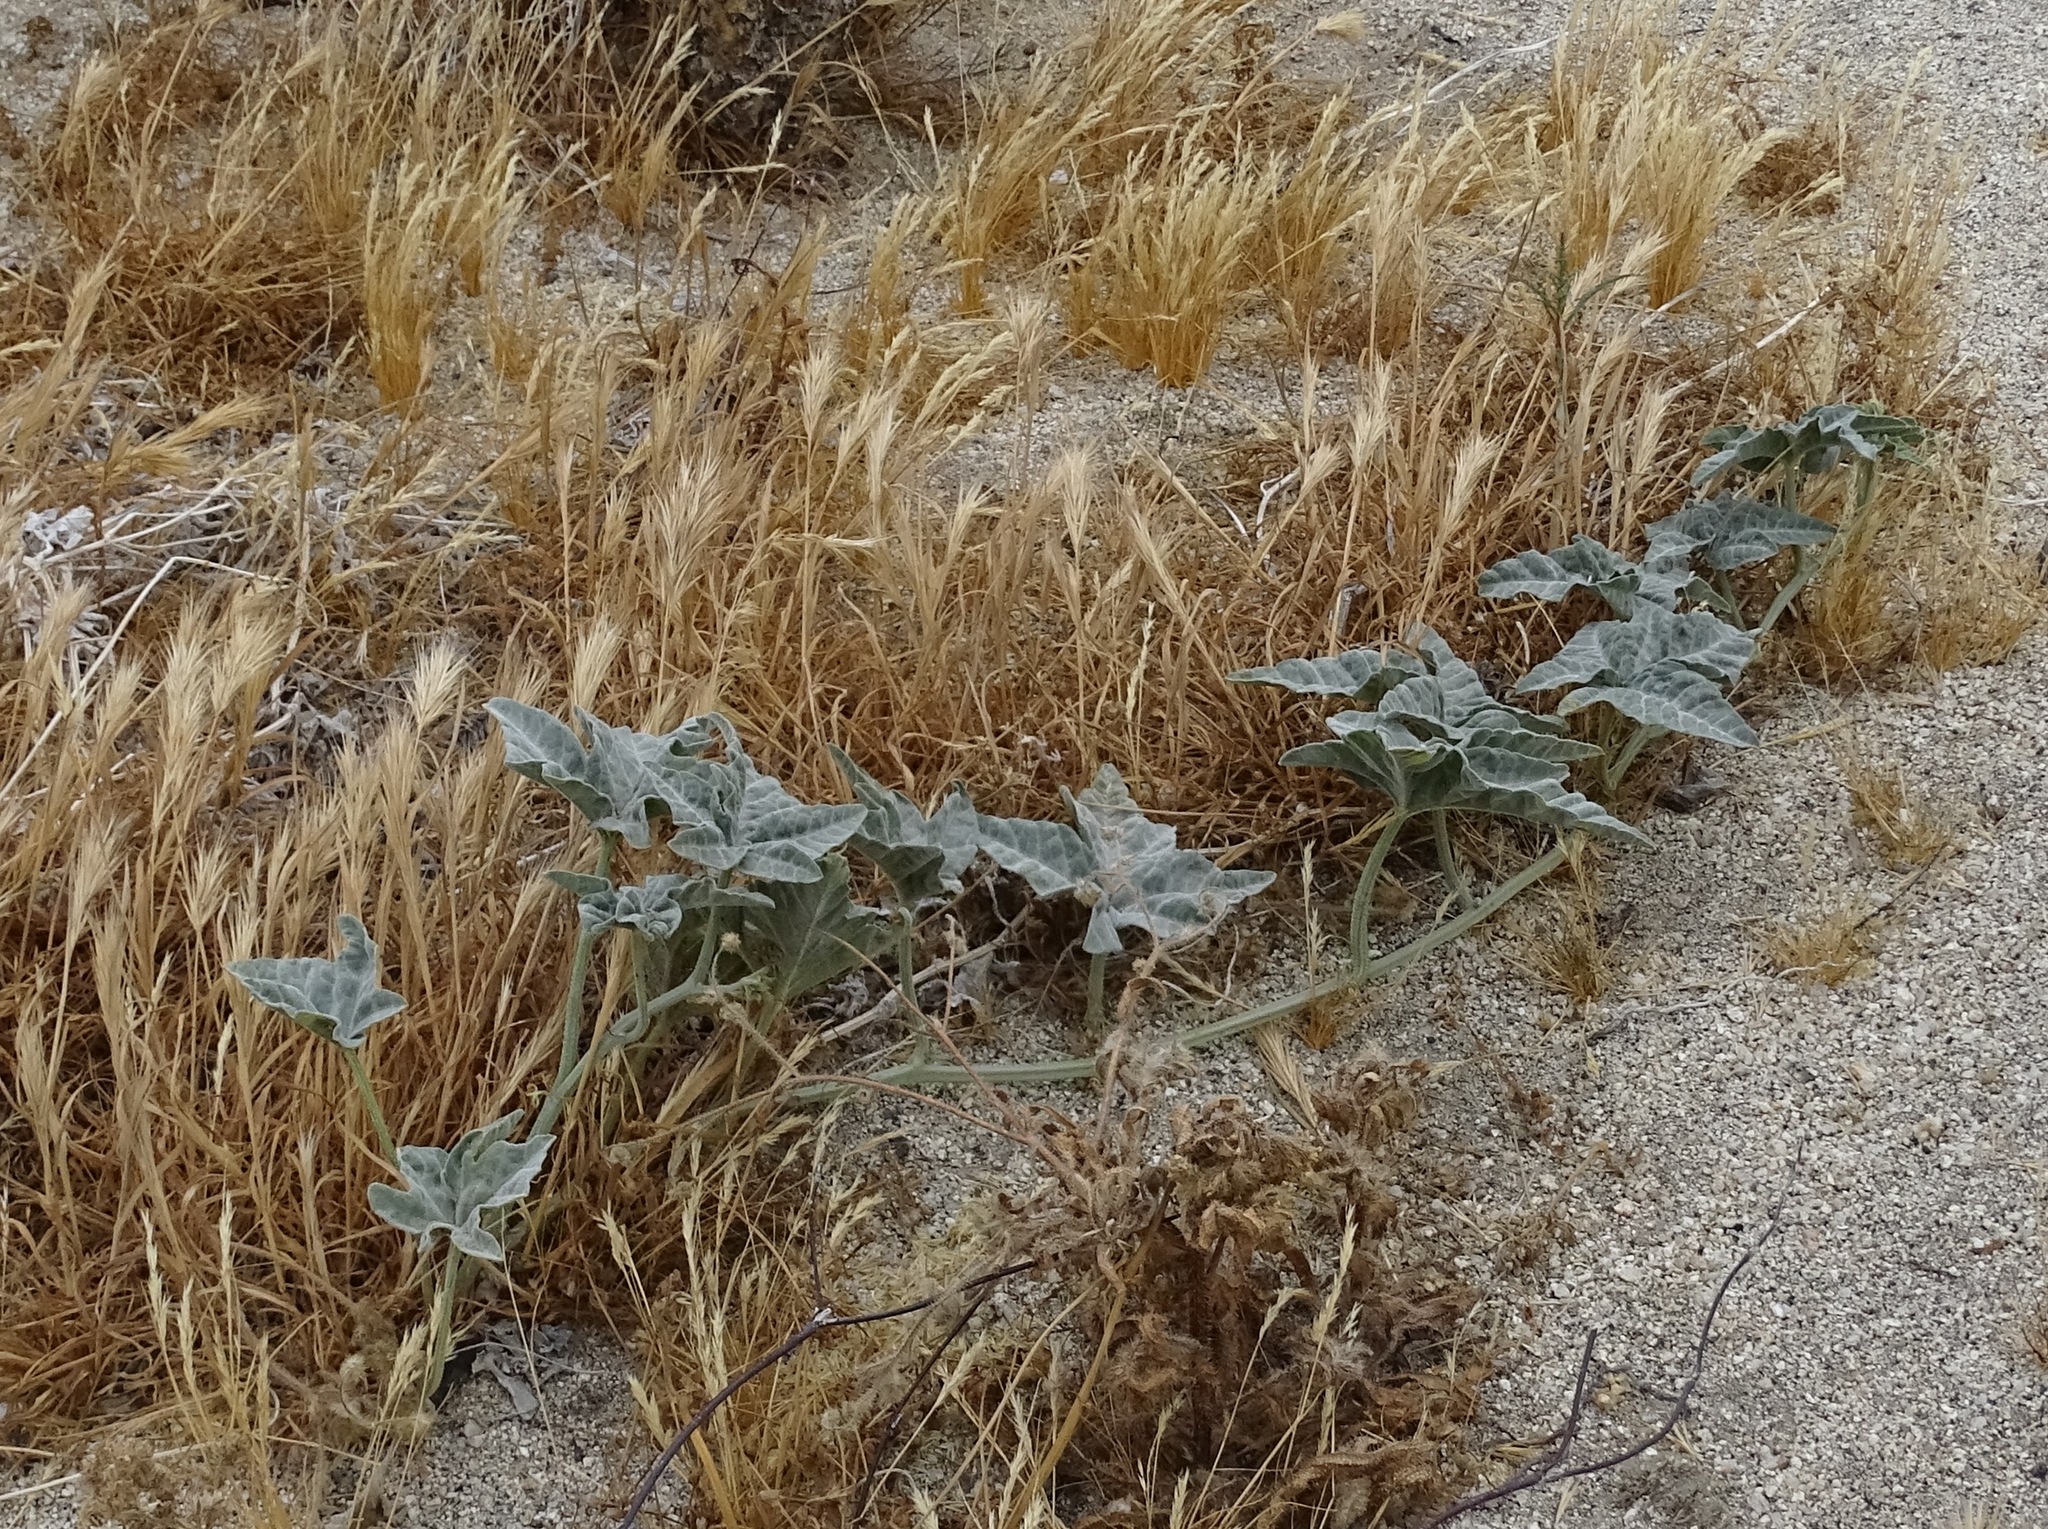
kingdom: Plantae
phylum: Tracheophyta
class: Magnoliopsida
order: Cucurbitales
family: Cucurbitaceae
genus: Cucurbita
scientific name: Cucurbita palmata
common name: Coyote-melon
